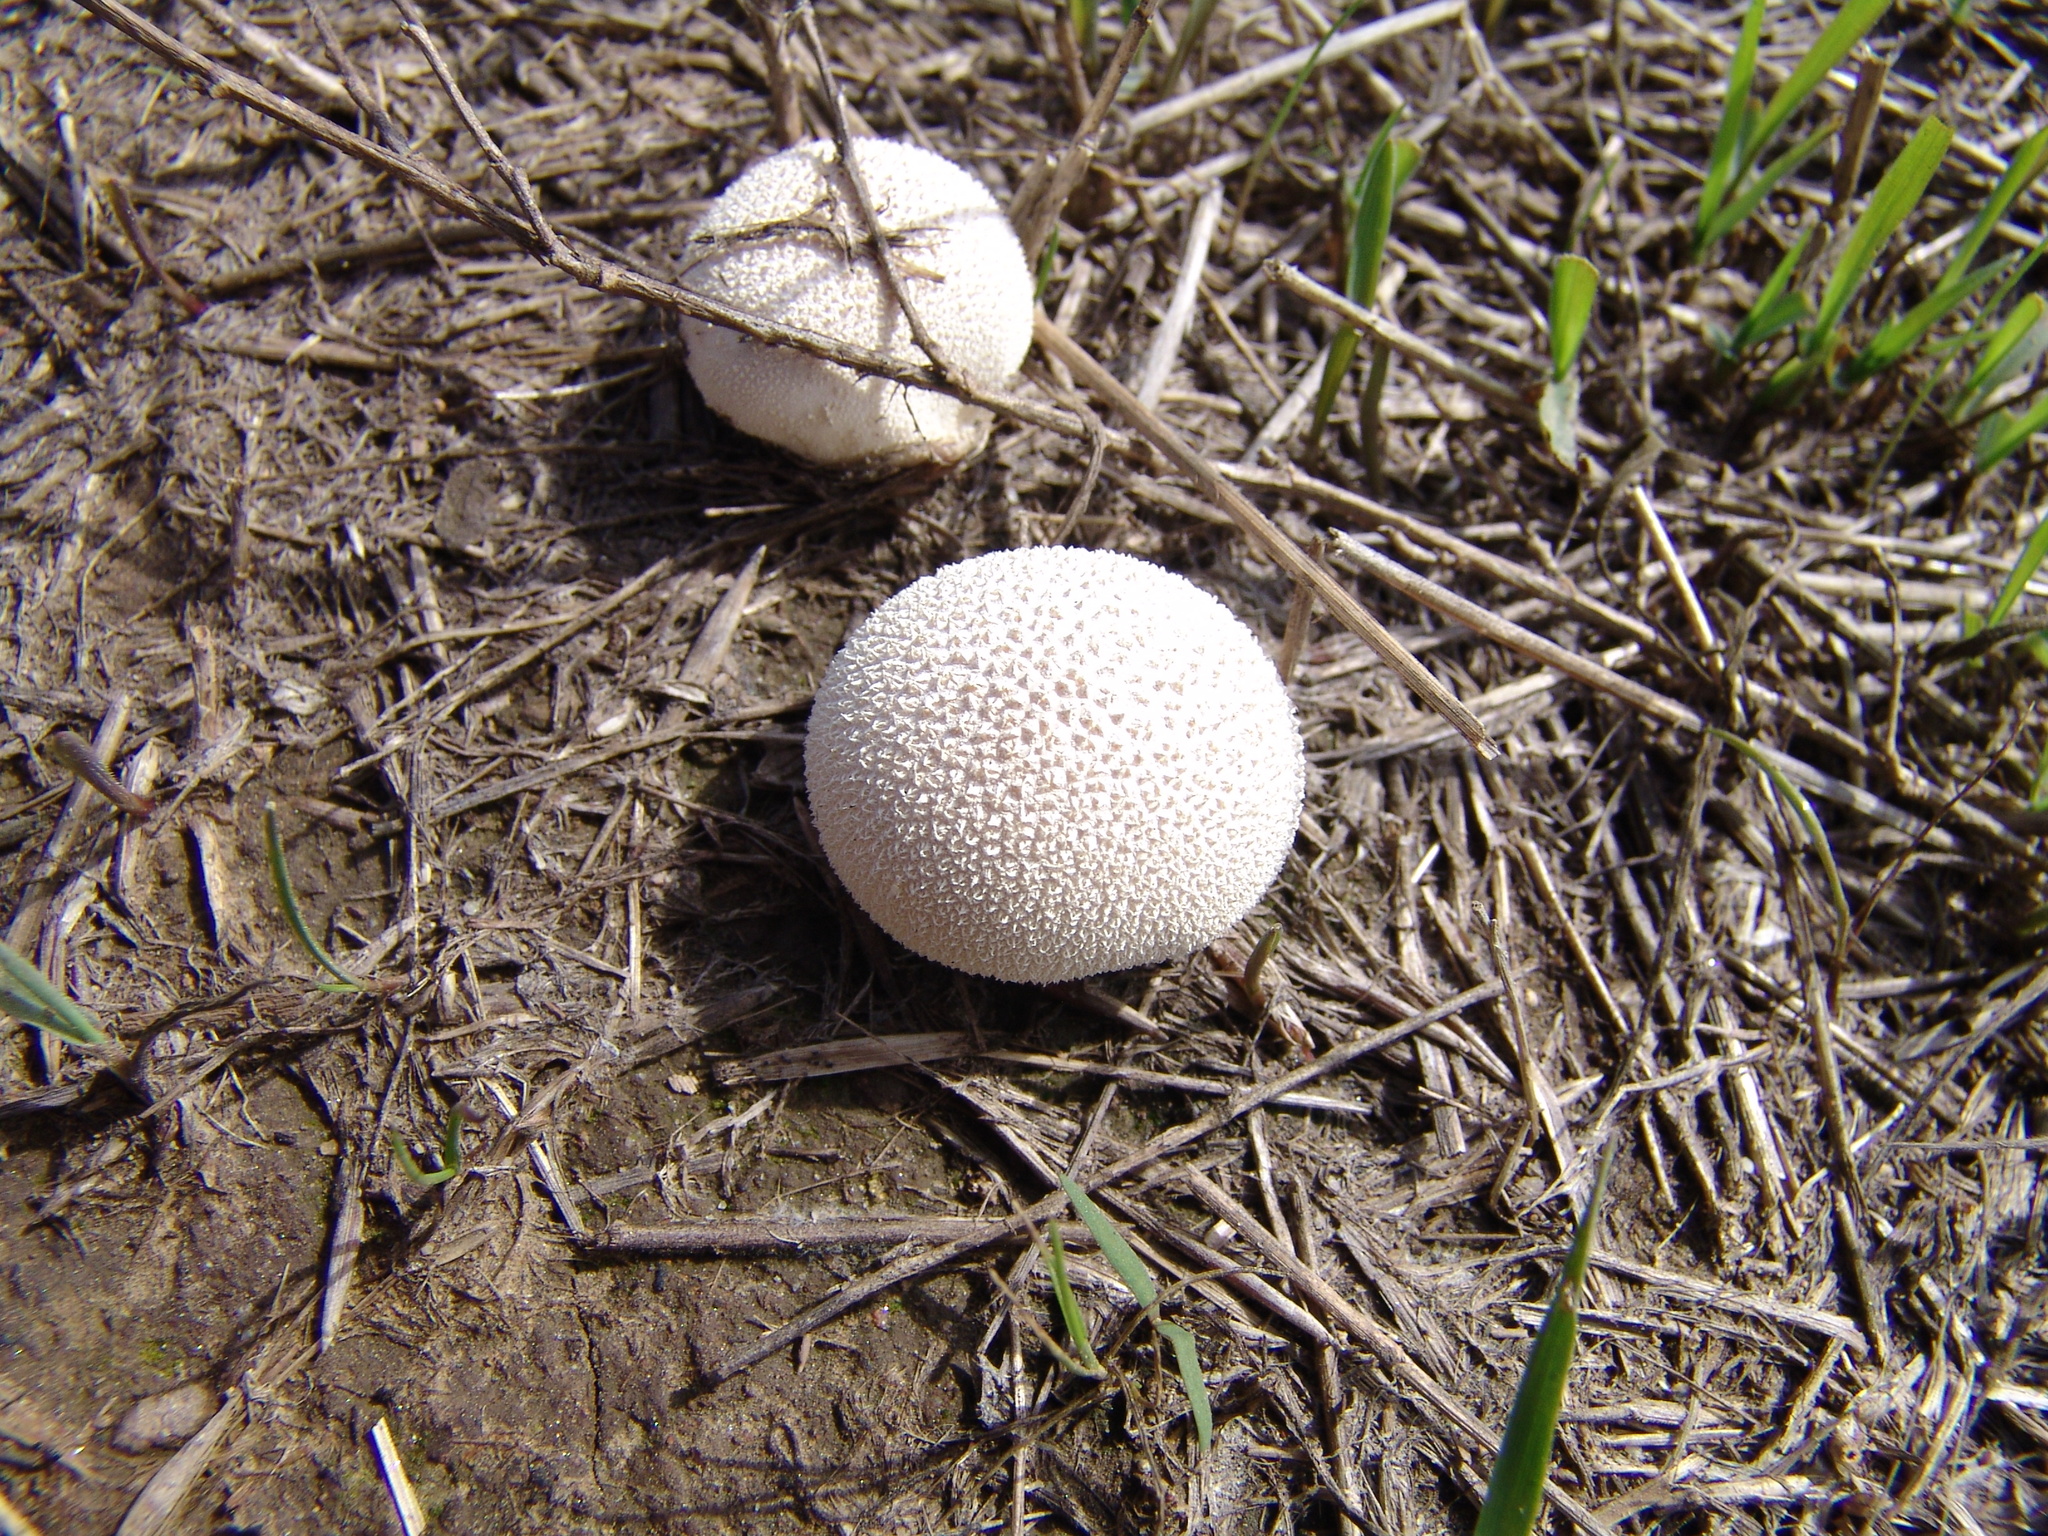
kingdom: Fungi
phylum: Basidiomycota
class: Agaricomycetes
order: Agaricales
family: Lycoperdaceae
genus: Lycoperdon
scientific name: Lycoperdon
